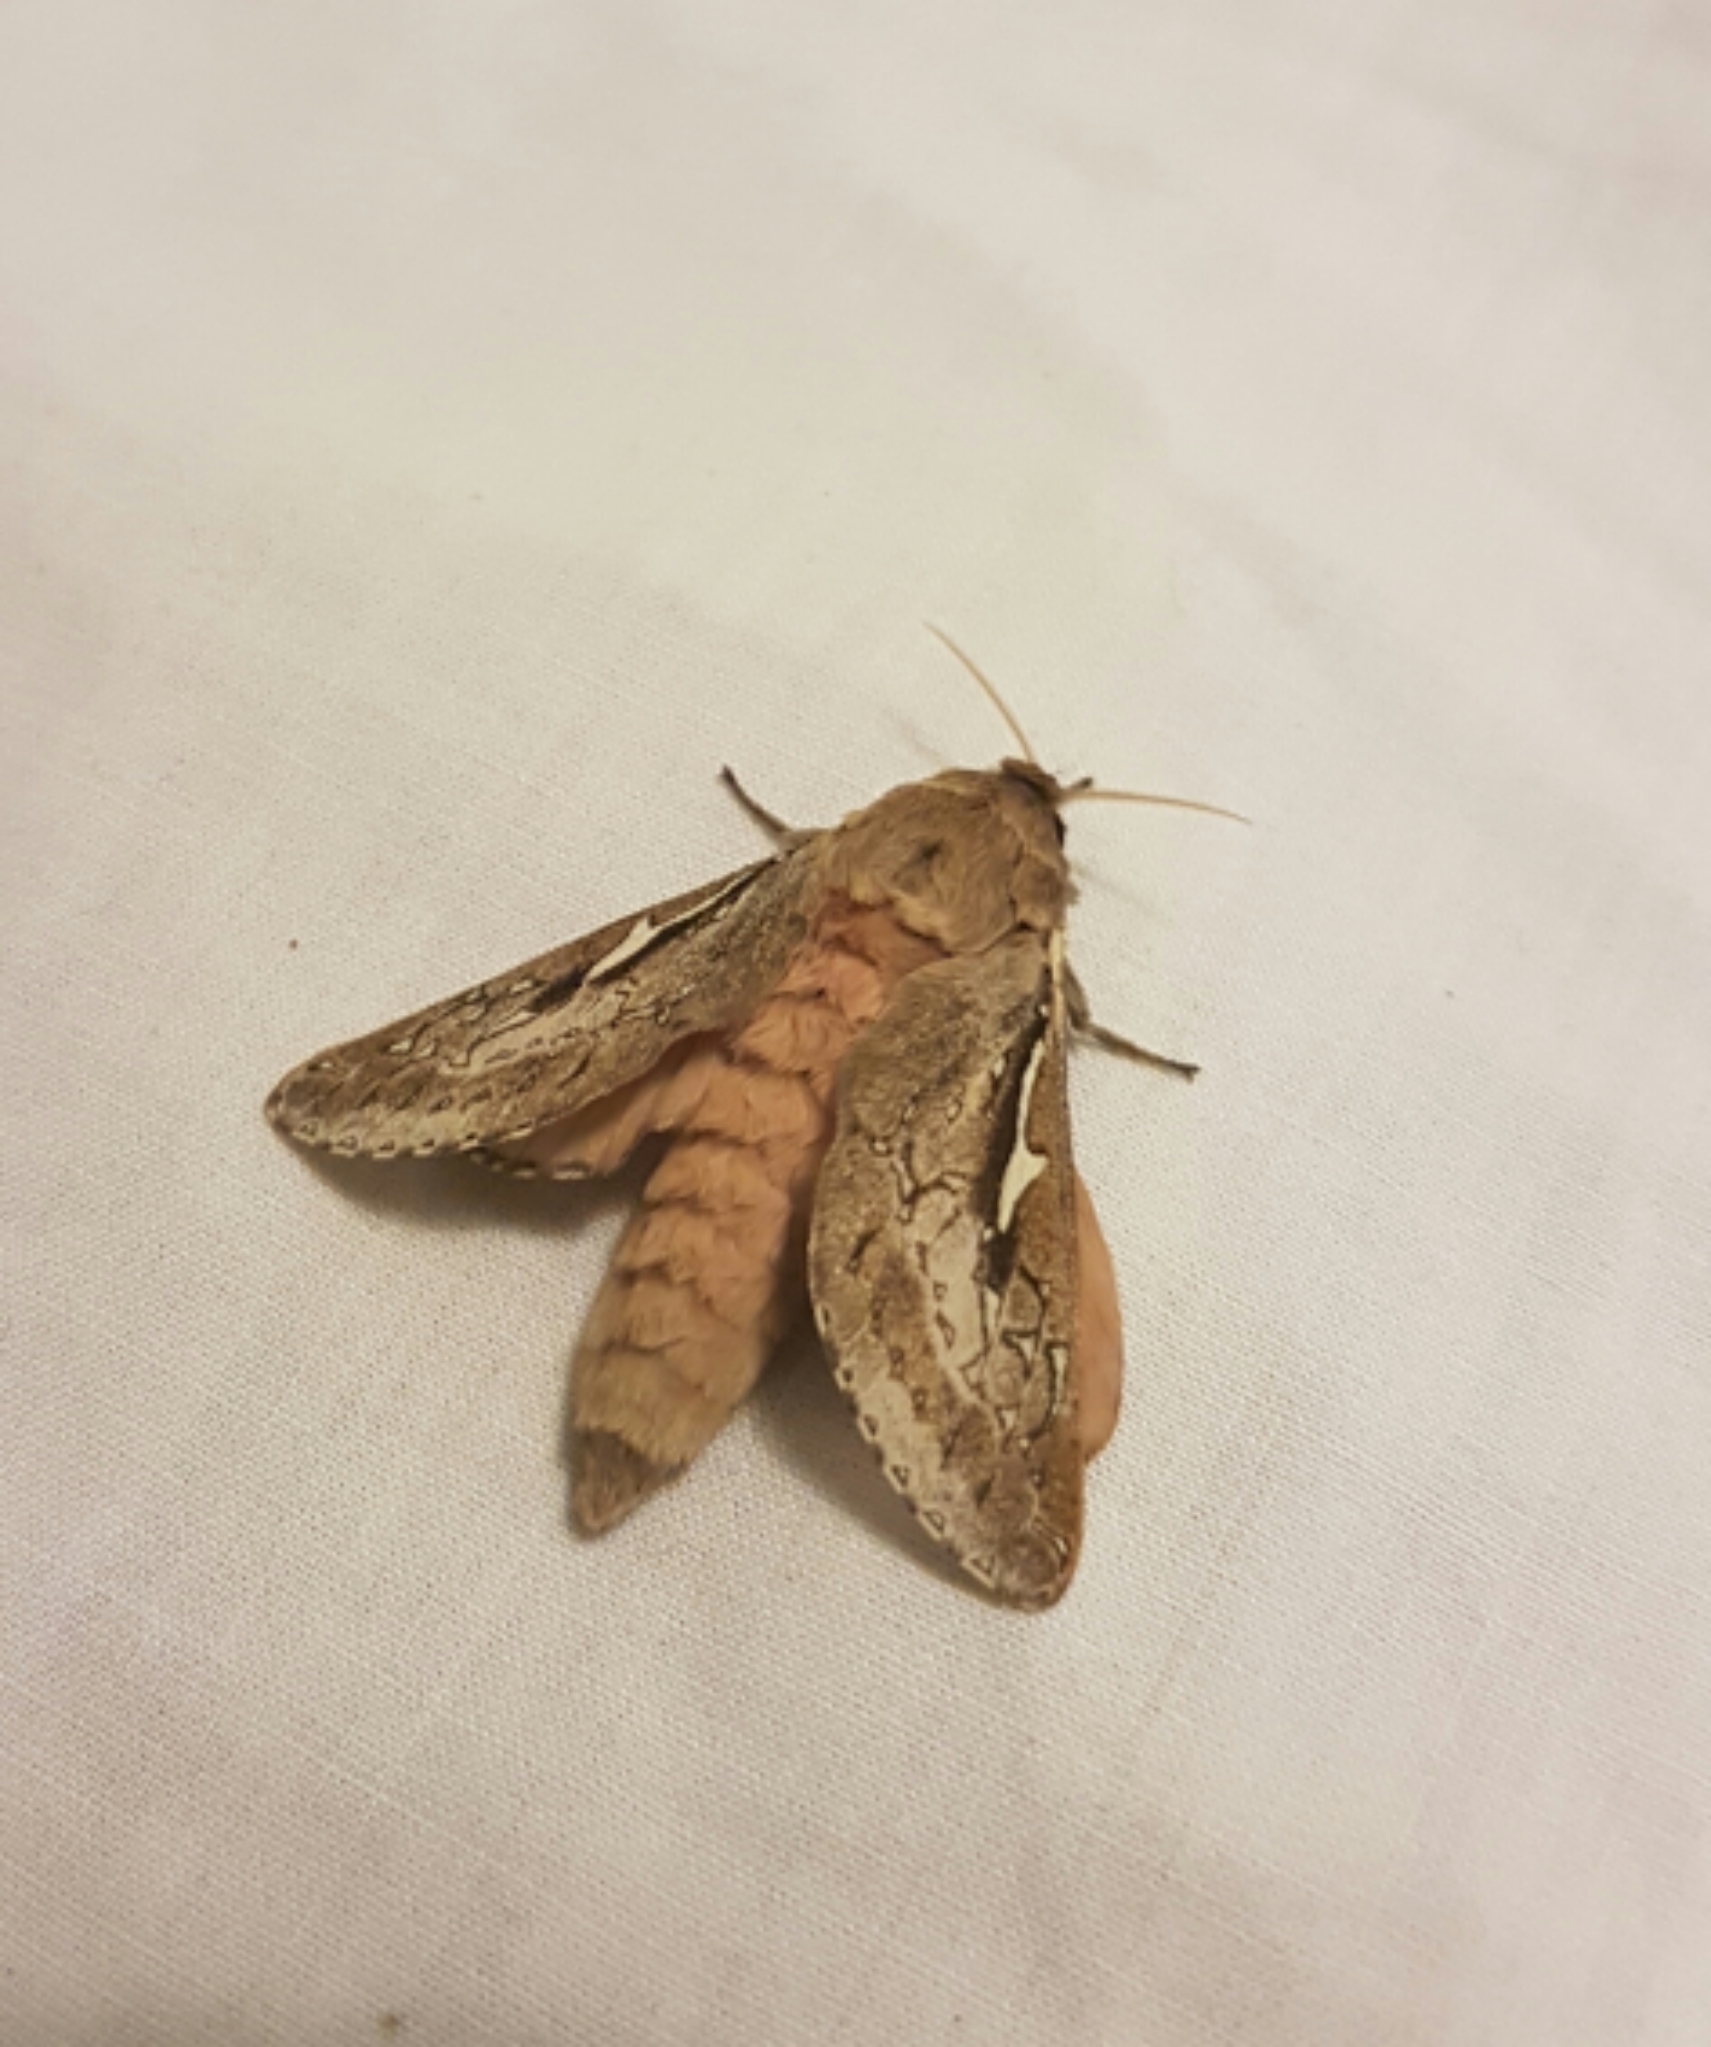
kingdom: Animalia
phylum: Arthropoda
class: Insecta
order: Lepidoptera
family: Hepialidae
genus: Wiseana
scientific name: Wiseana signata
